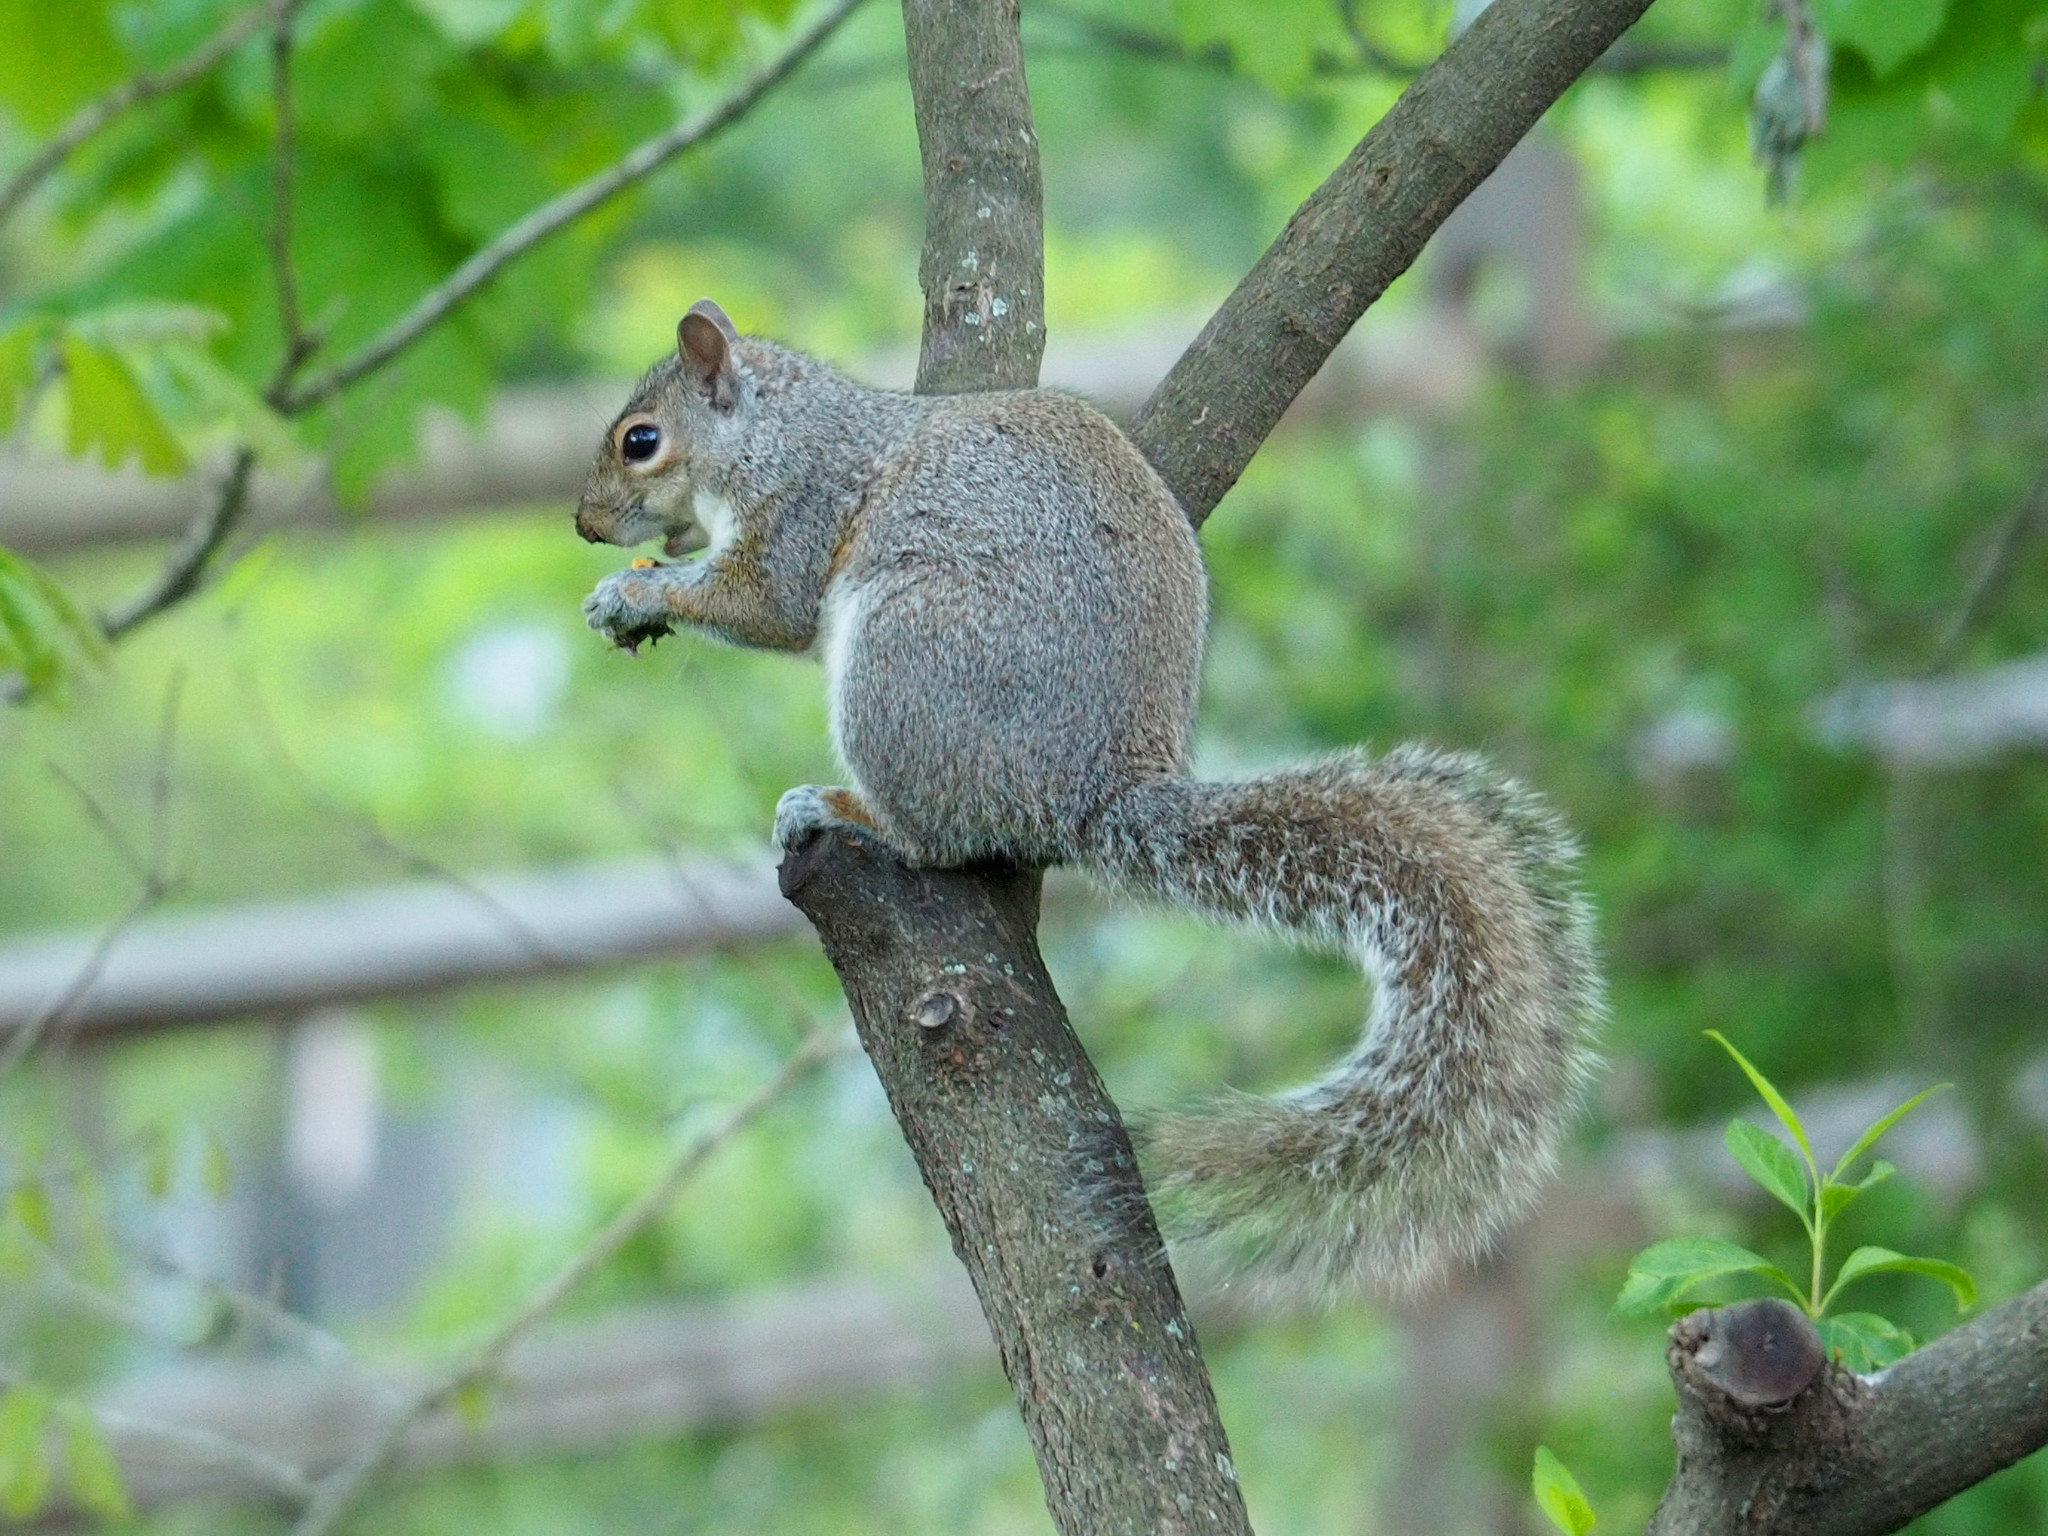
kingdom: Animalia
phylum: Chordata
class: Mammalia
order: Rodentia
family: Sciuridae
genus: Sciurus
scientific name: Sciurus carolinensis
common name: Eastern gray squirrel
